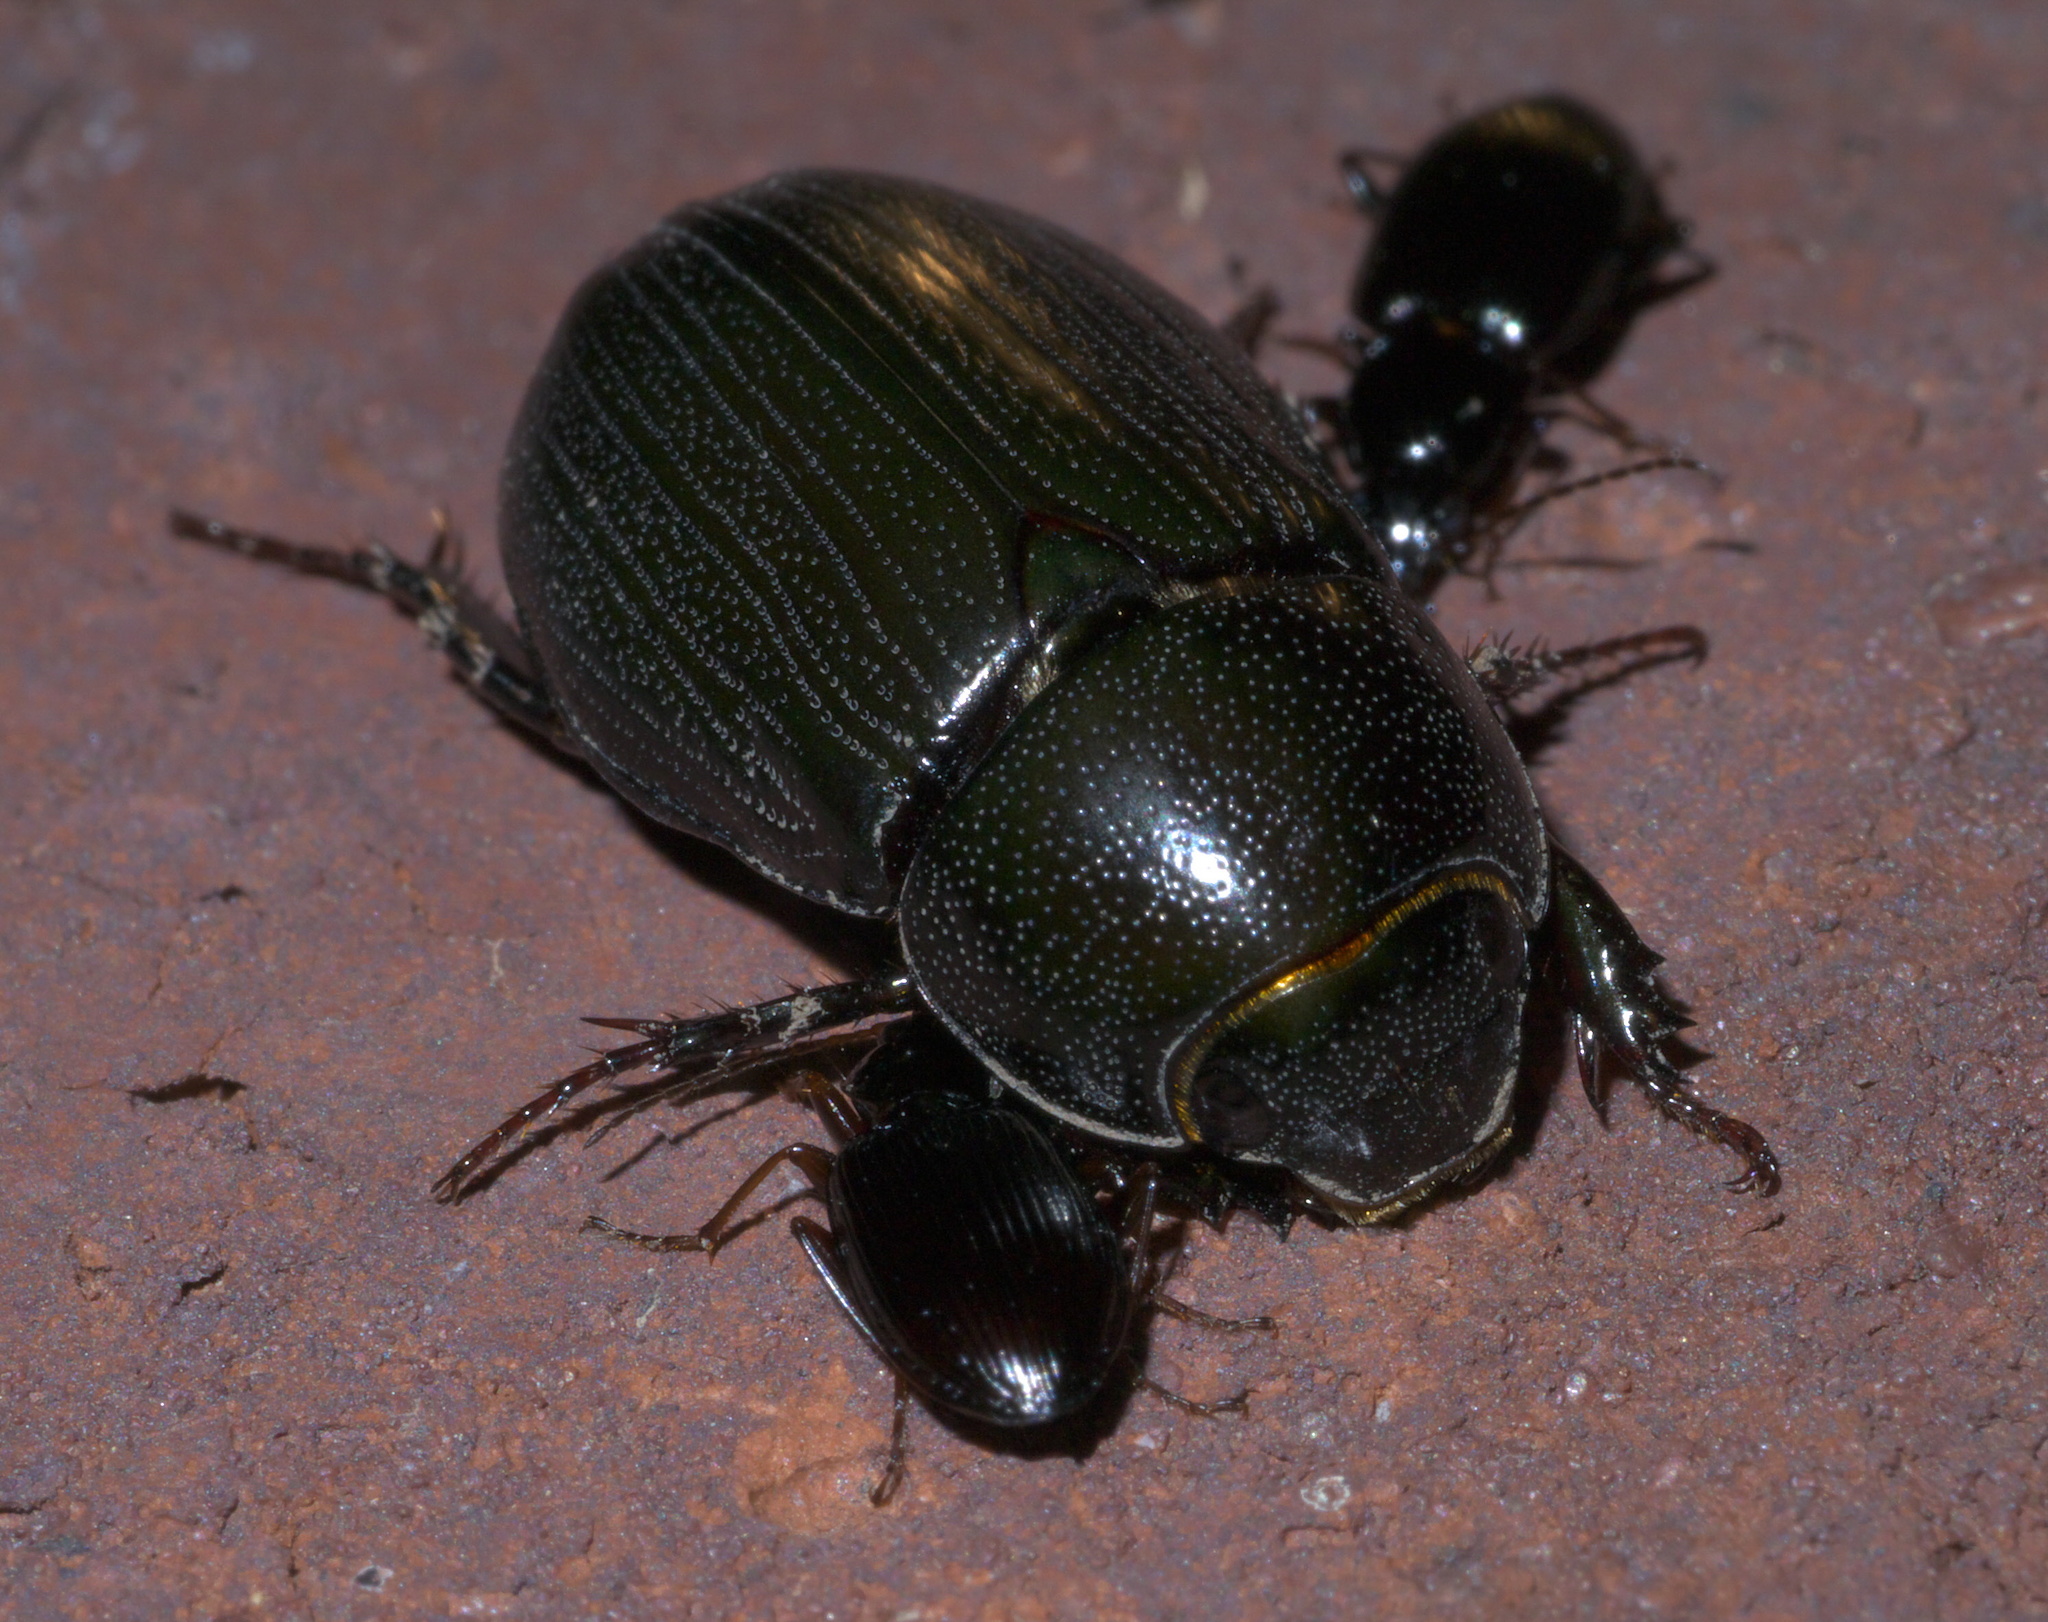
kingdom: Animalia
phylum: Arthropoda
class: Insecta
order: Coleoptera
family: Scarabaeidae
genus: Dyscinetus
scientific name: Dyscinetus morator
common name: Rice beetle
